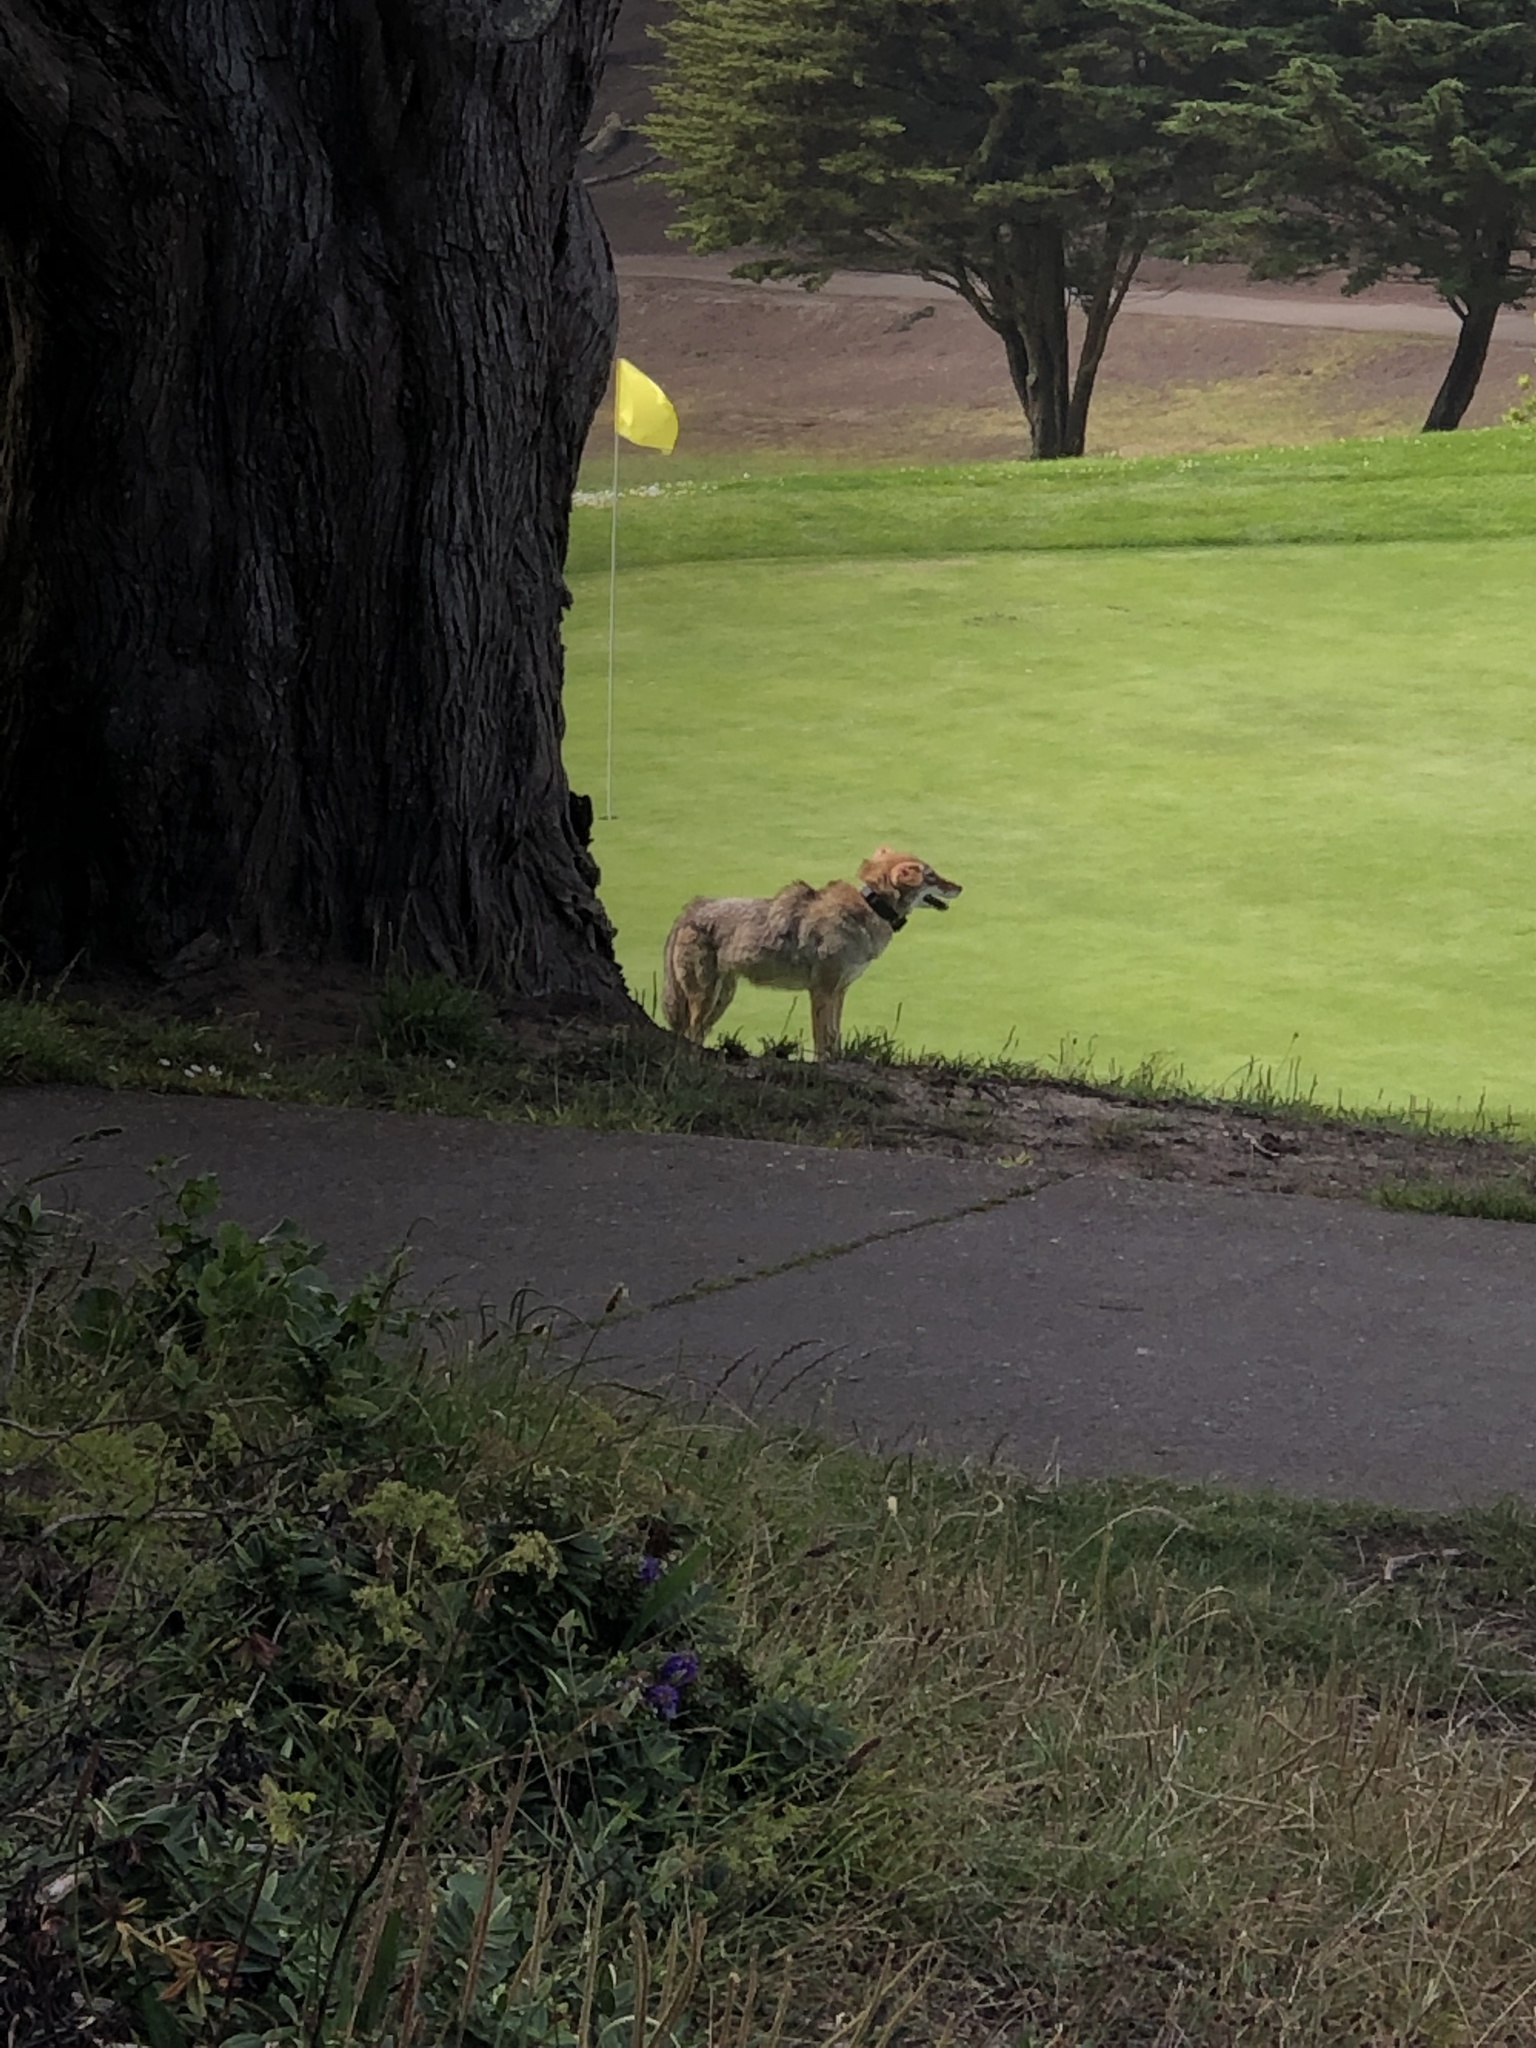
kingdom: Animalia
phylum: Chordata
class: Mammalia
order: Carnivora
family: Canidae
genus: Canis
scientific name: Canis latrans
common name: Coyote
